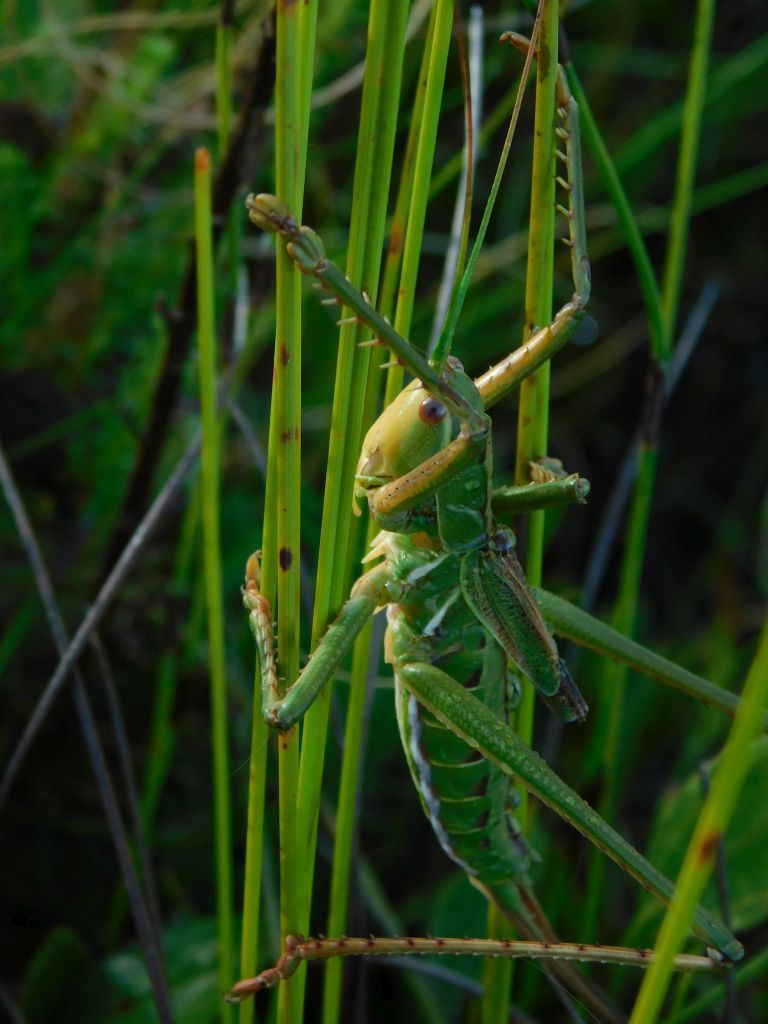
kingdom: Animalia
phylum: Arthropoda
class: Insecta
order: Orthoptera
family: Tettigoniidae
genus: Clonia
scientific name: Clonia melanoptera
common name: Giant black-winged clonia
